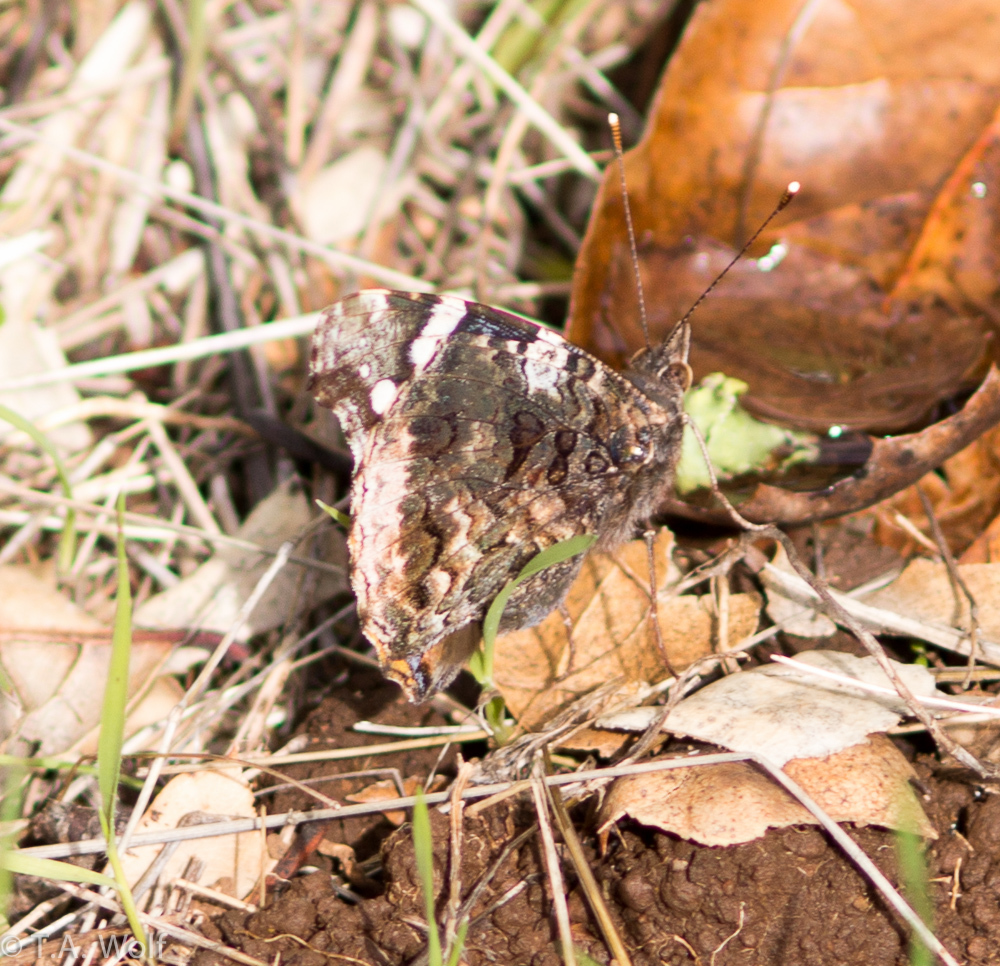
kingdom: Animalia
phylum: Arthropoda
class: Insecta
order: Lepidoptera
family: Nymphalidae
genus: Vanessa
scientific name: Vanessa atalanta
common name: Red admiral
